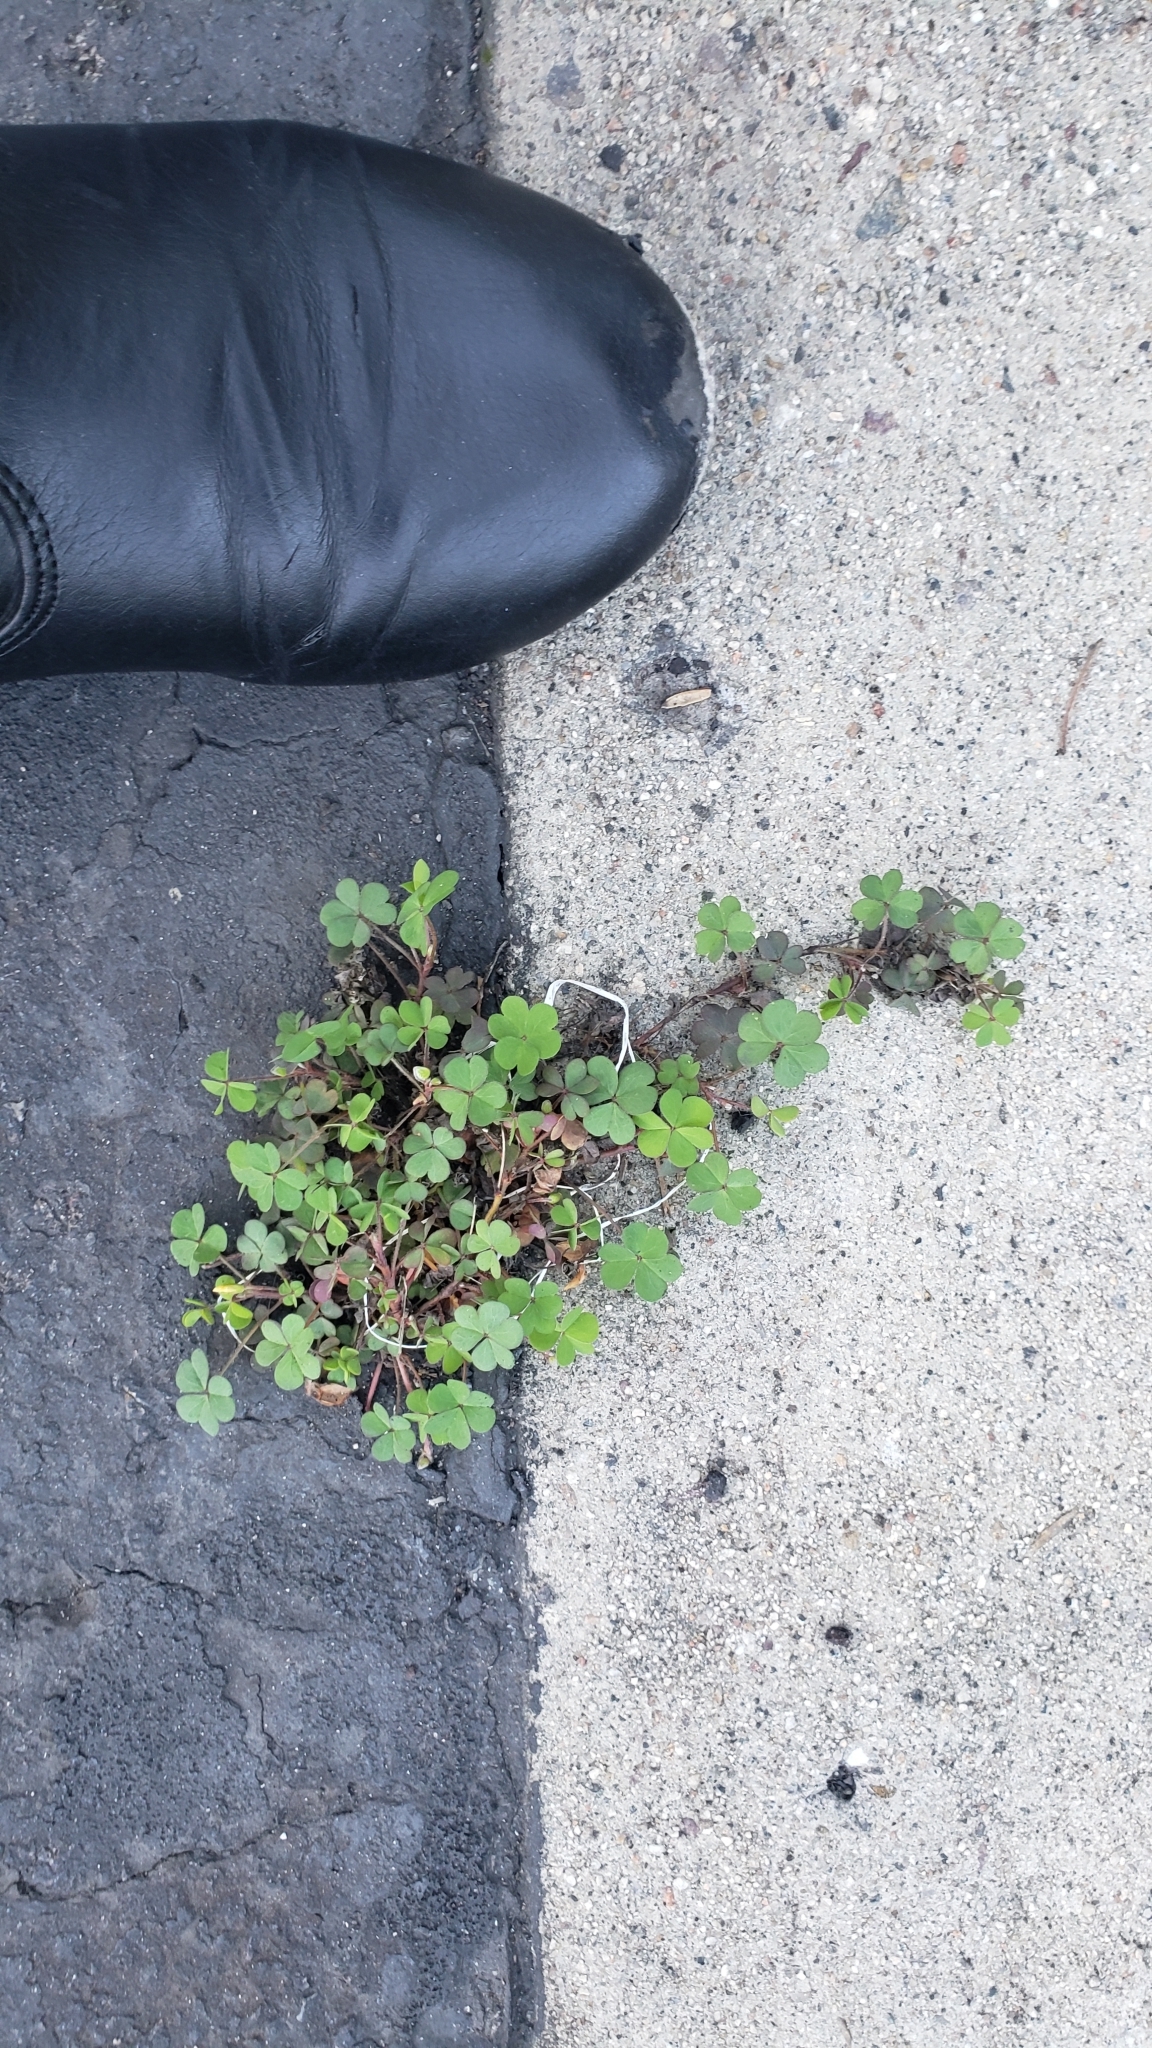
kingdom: Plantae
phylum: Tracheophyta
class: Magnoliopsida
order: Oxalidales
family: Oxalidaceae
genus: Oxalis
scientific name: Oxalis corniculata
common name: Procumbent yellow-sorrel
